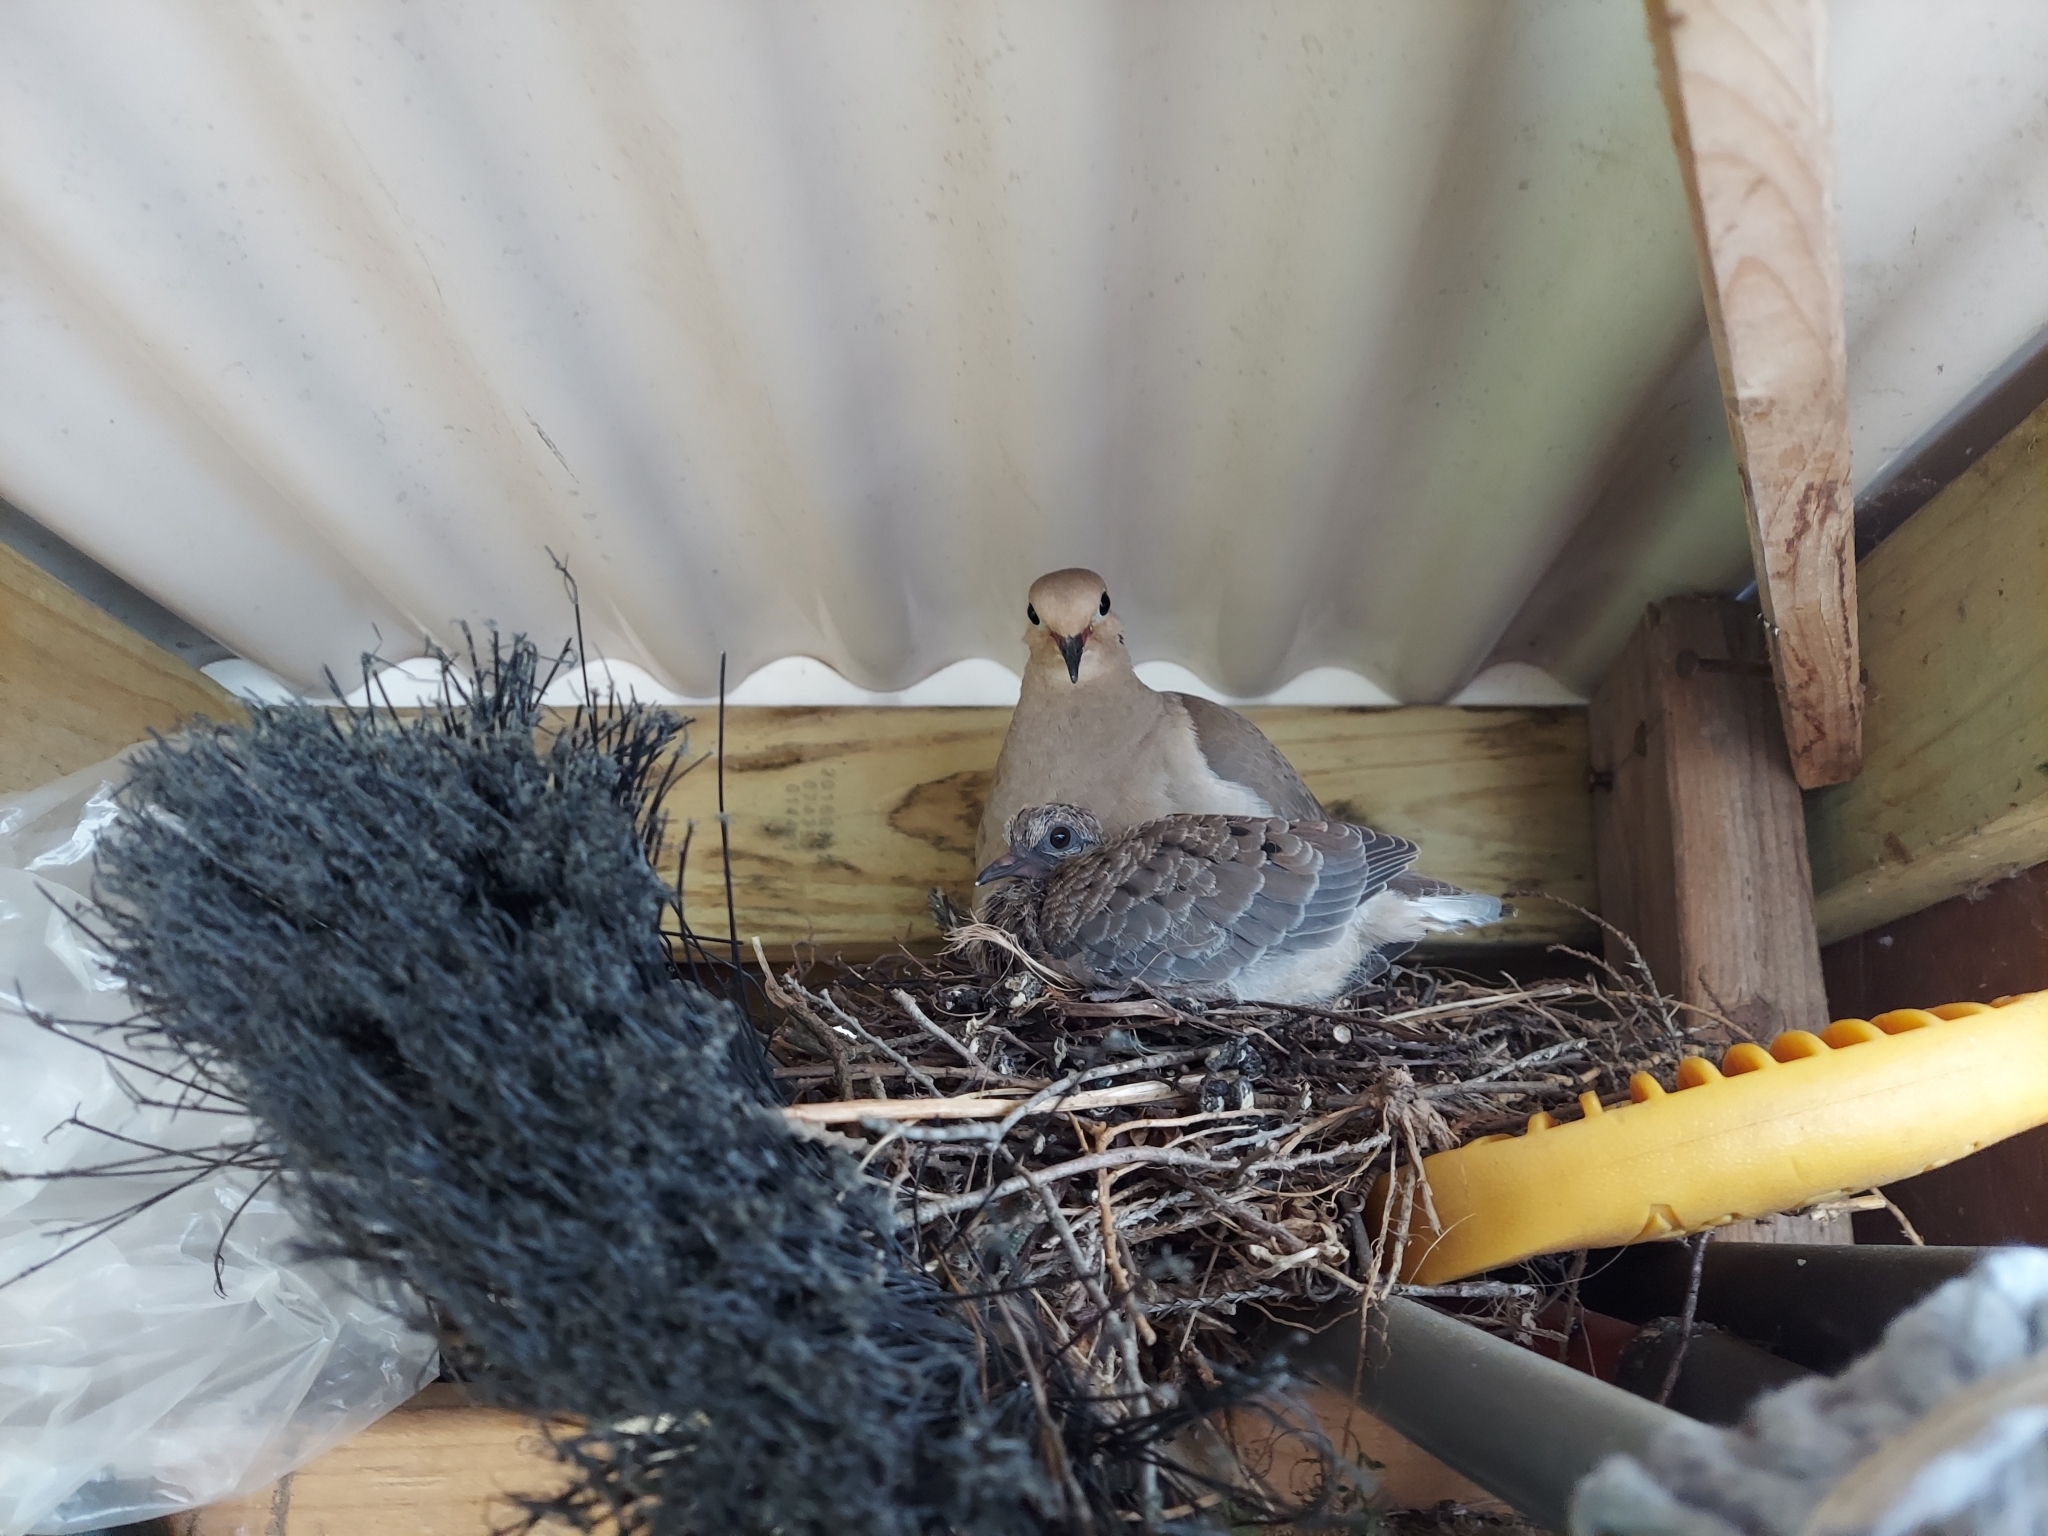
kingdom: Animalia
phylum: Chordata
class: Aves
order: Columbiformes
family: Columbidae
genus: Zenaida
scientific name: Zenaida macroura
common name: Mourning dove
